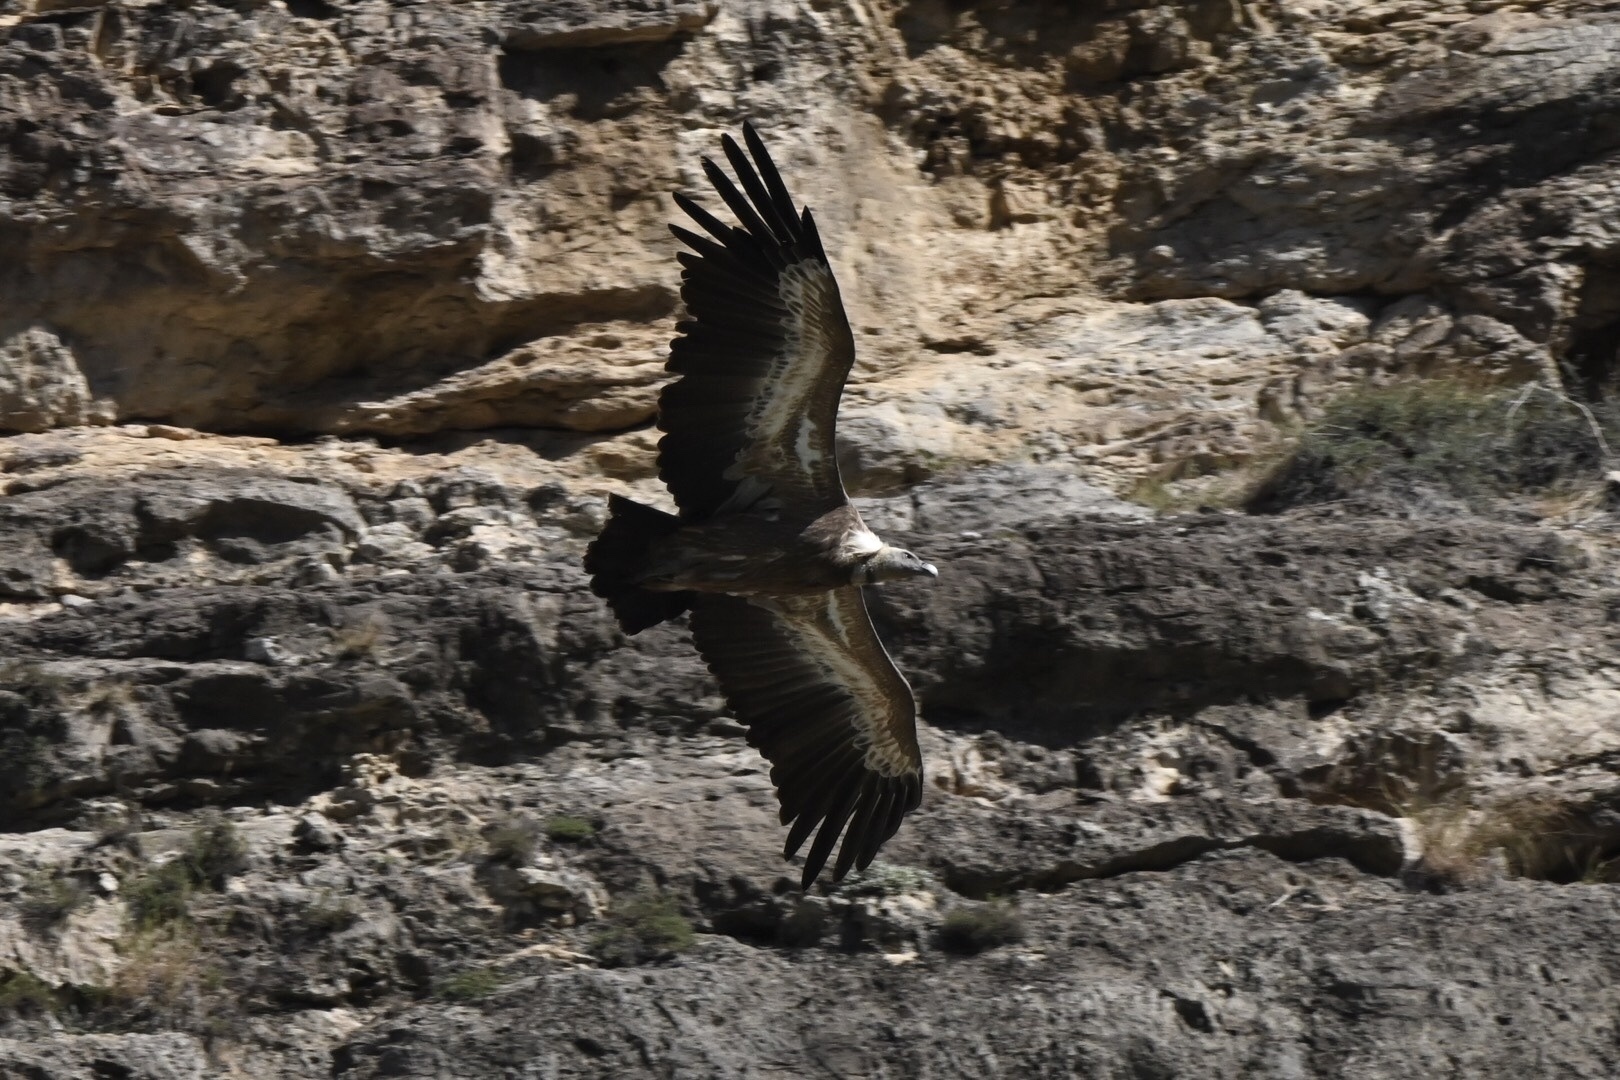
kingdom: Animalia
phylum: Chordata
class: Aves
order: Accipitriformes
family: Accipitridae
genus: Gyps
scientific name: Gyps fulvus
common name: Griffon vulture
